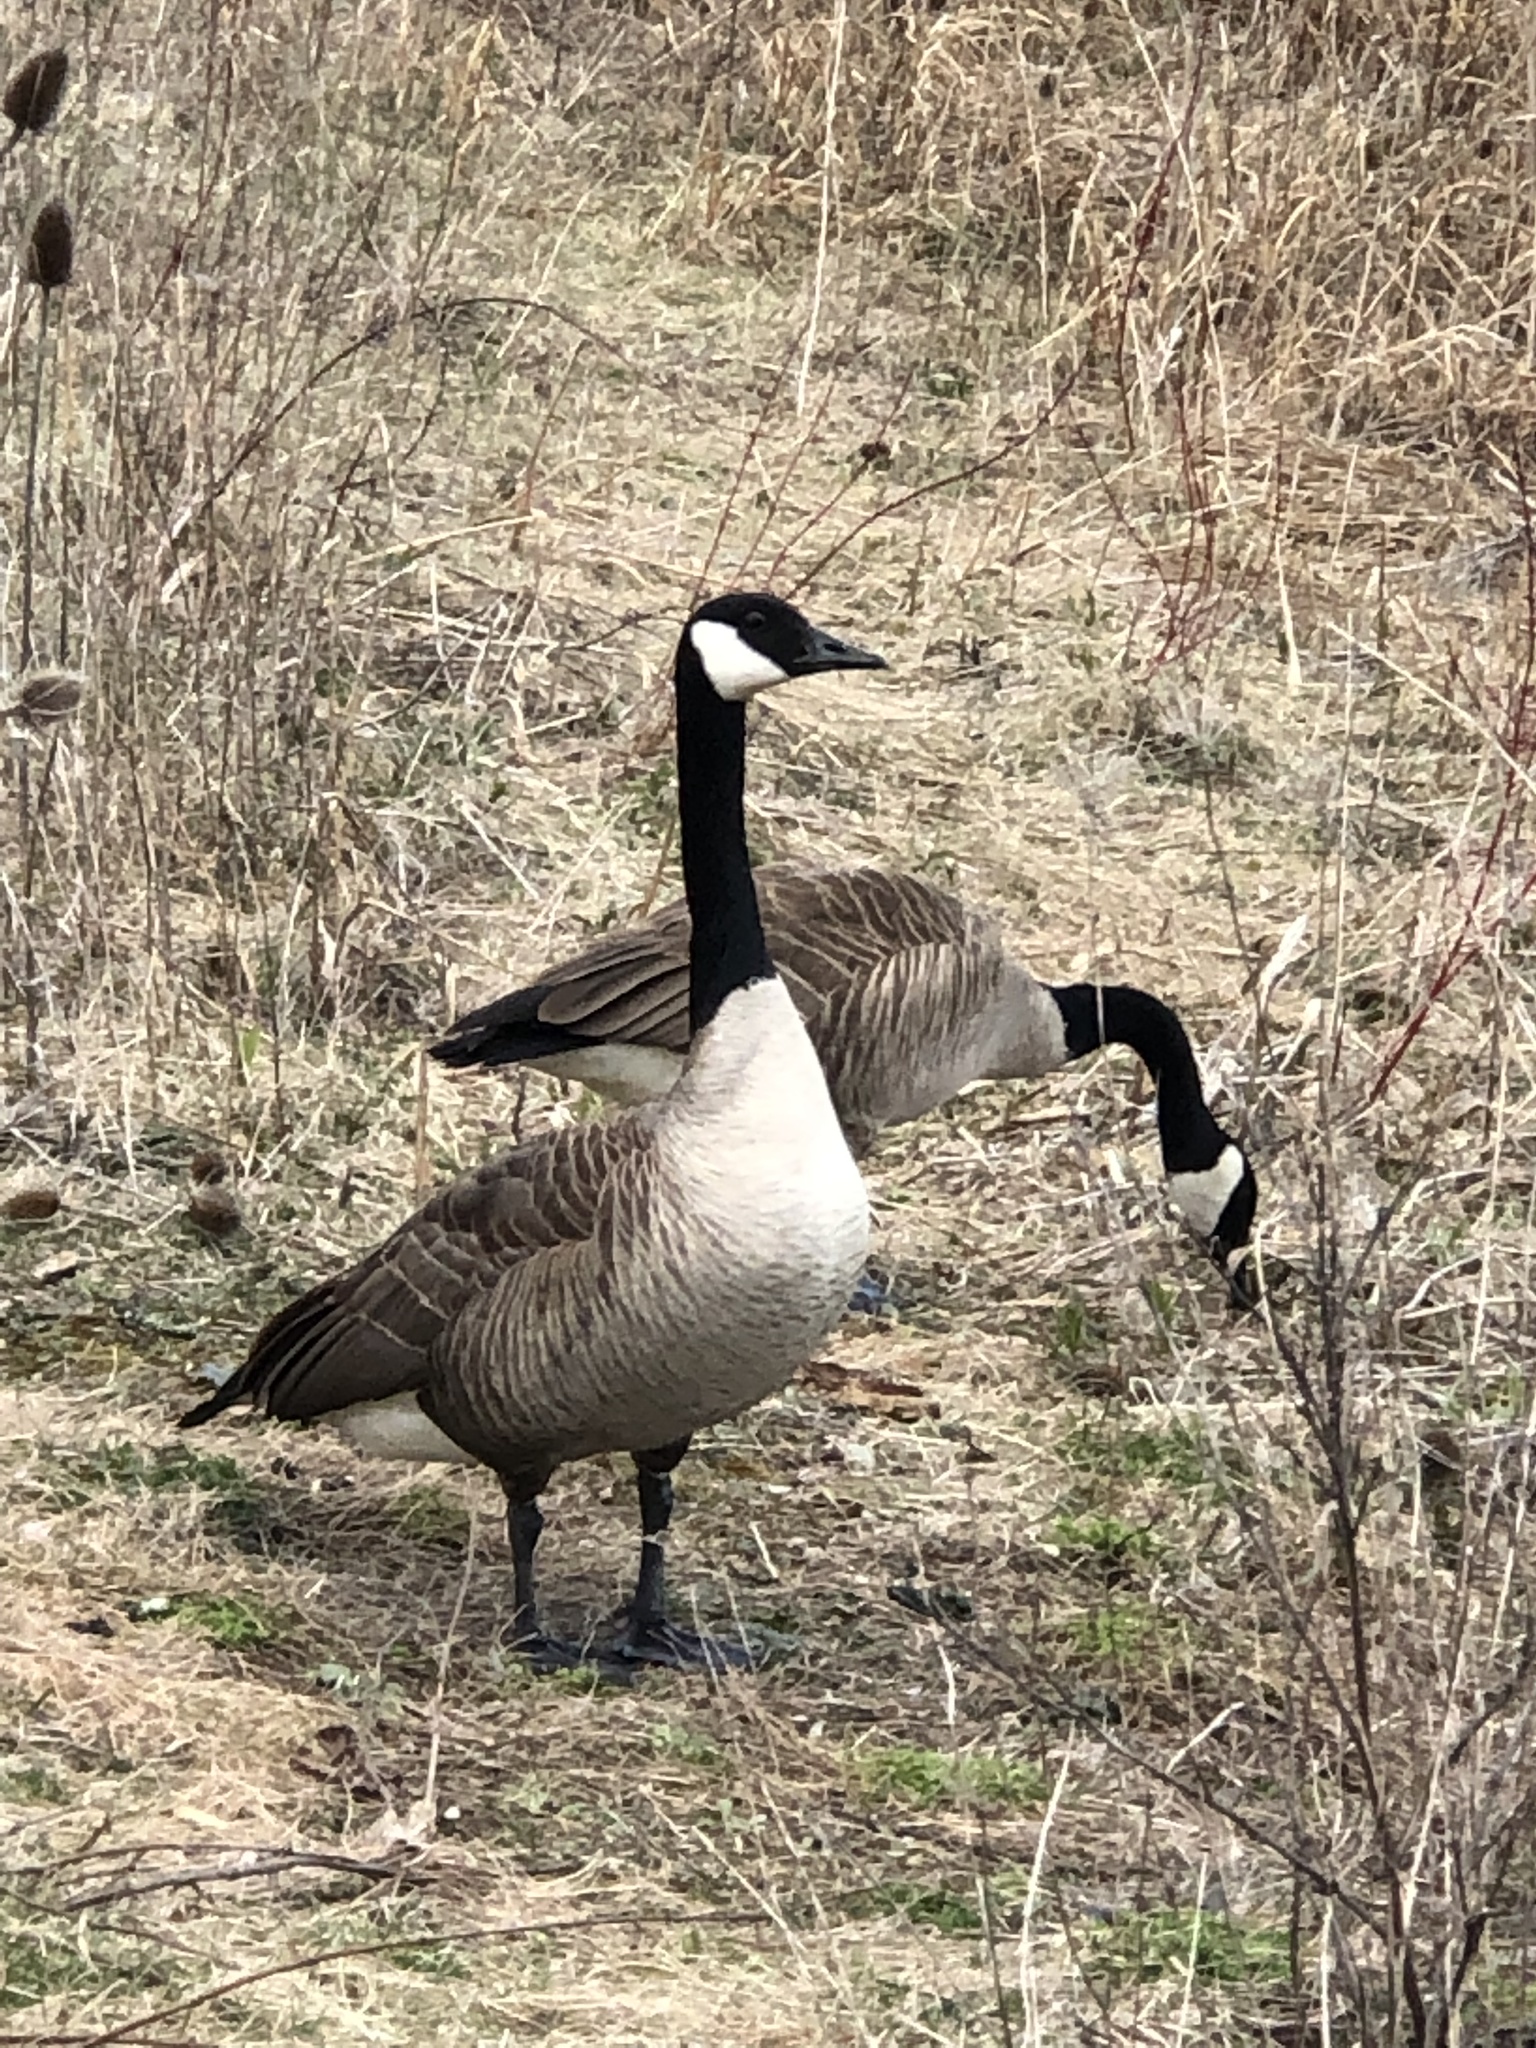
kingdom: Animalia
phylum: Chordata
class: Aves
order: Anseriformes
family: Anatidae
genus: Branta
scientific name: Branta canadensis
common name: Canada goose
